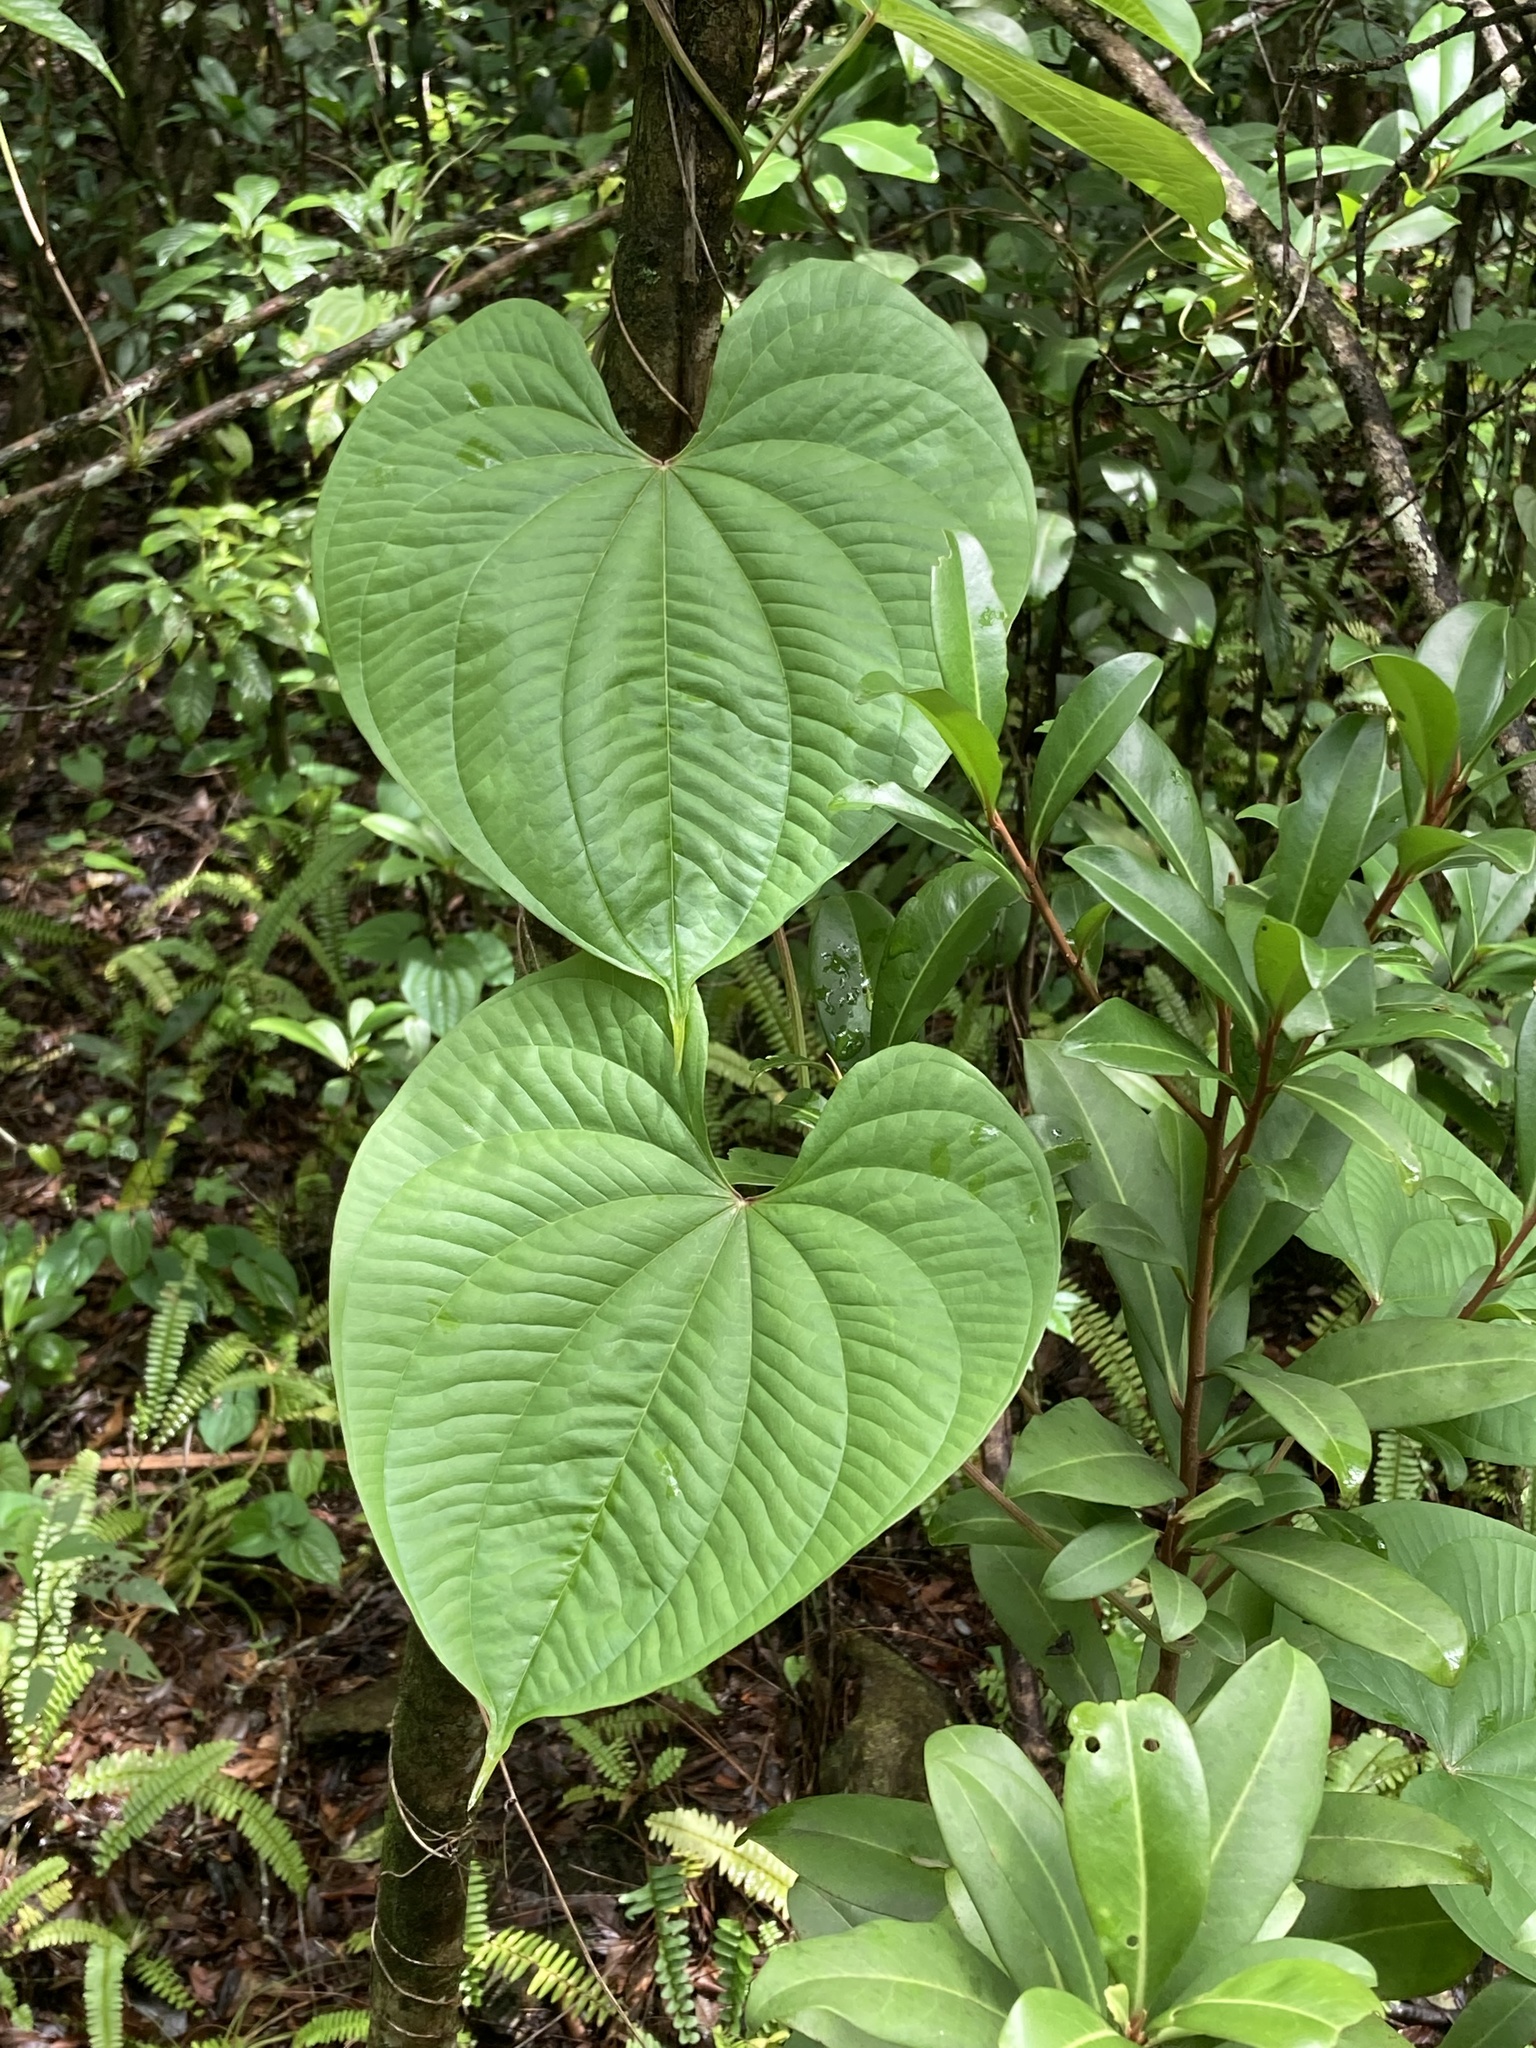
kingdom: Plantae
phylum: Tracheophyta
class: Liliopsida
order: Dioscoreales
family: Dioscoreaceae
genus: Dioscorea
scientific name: Dioscorea bulbifera
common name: Air yam
